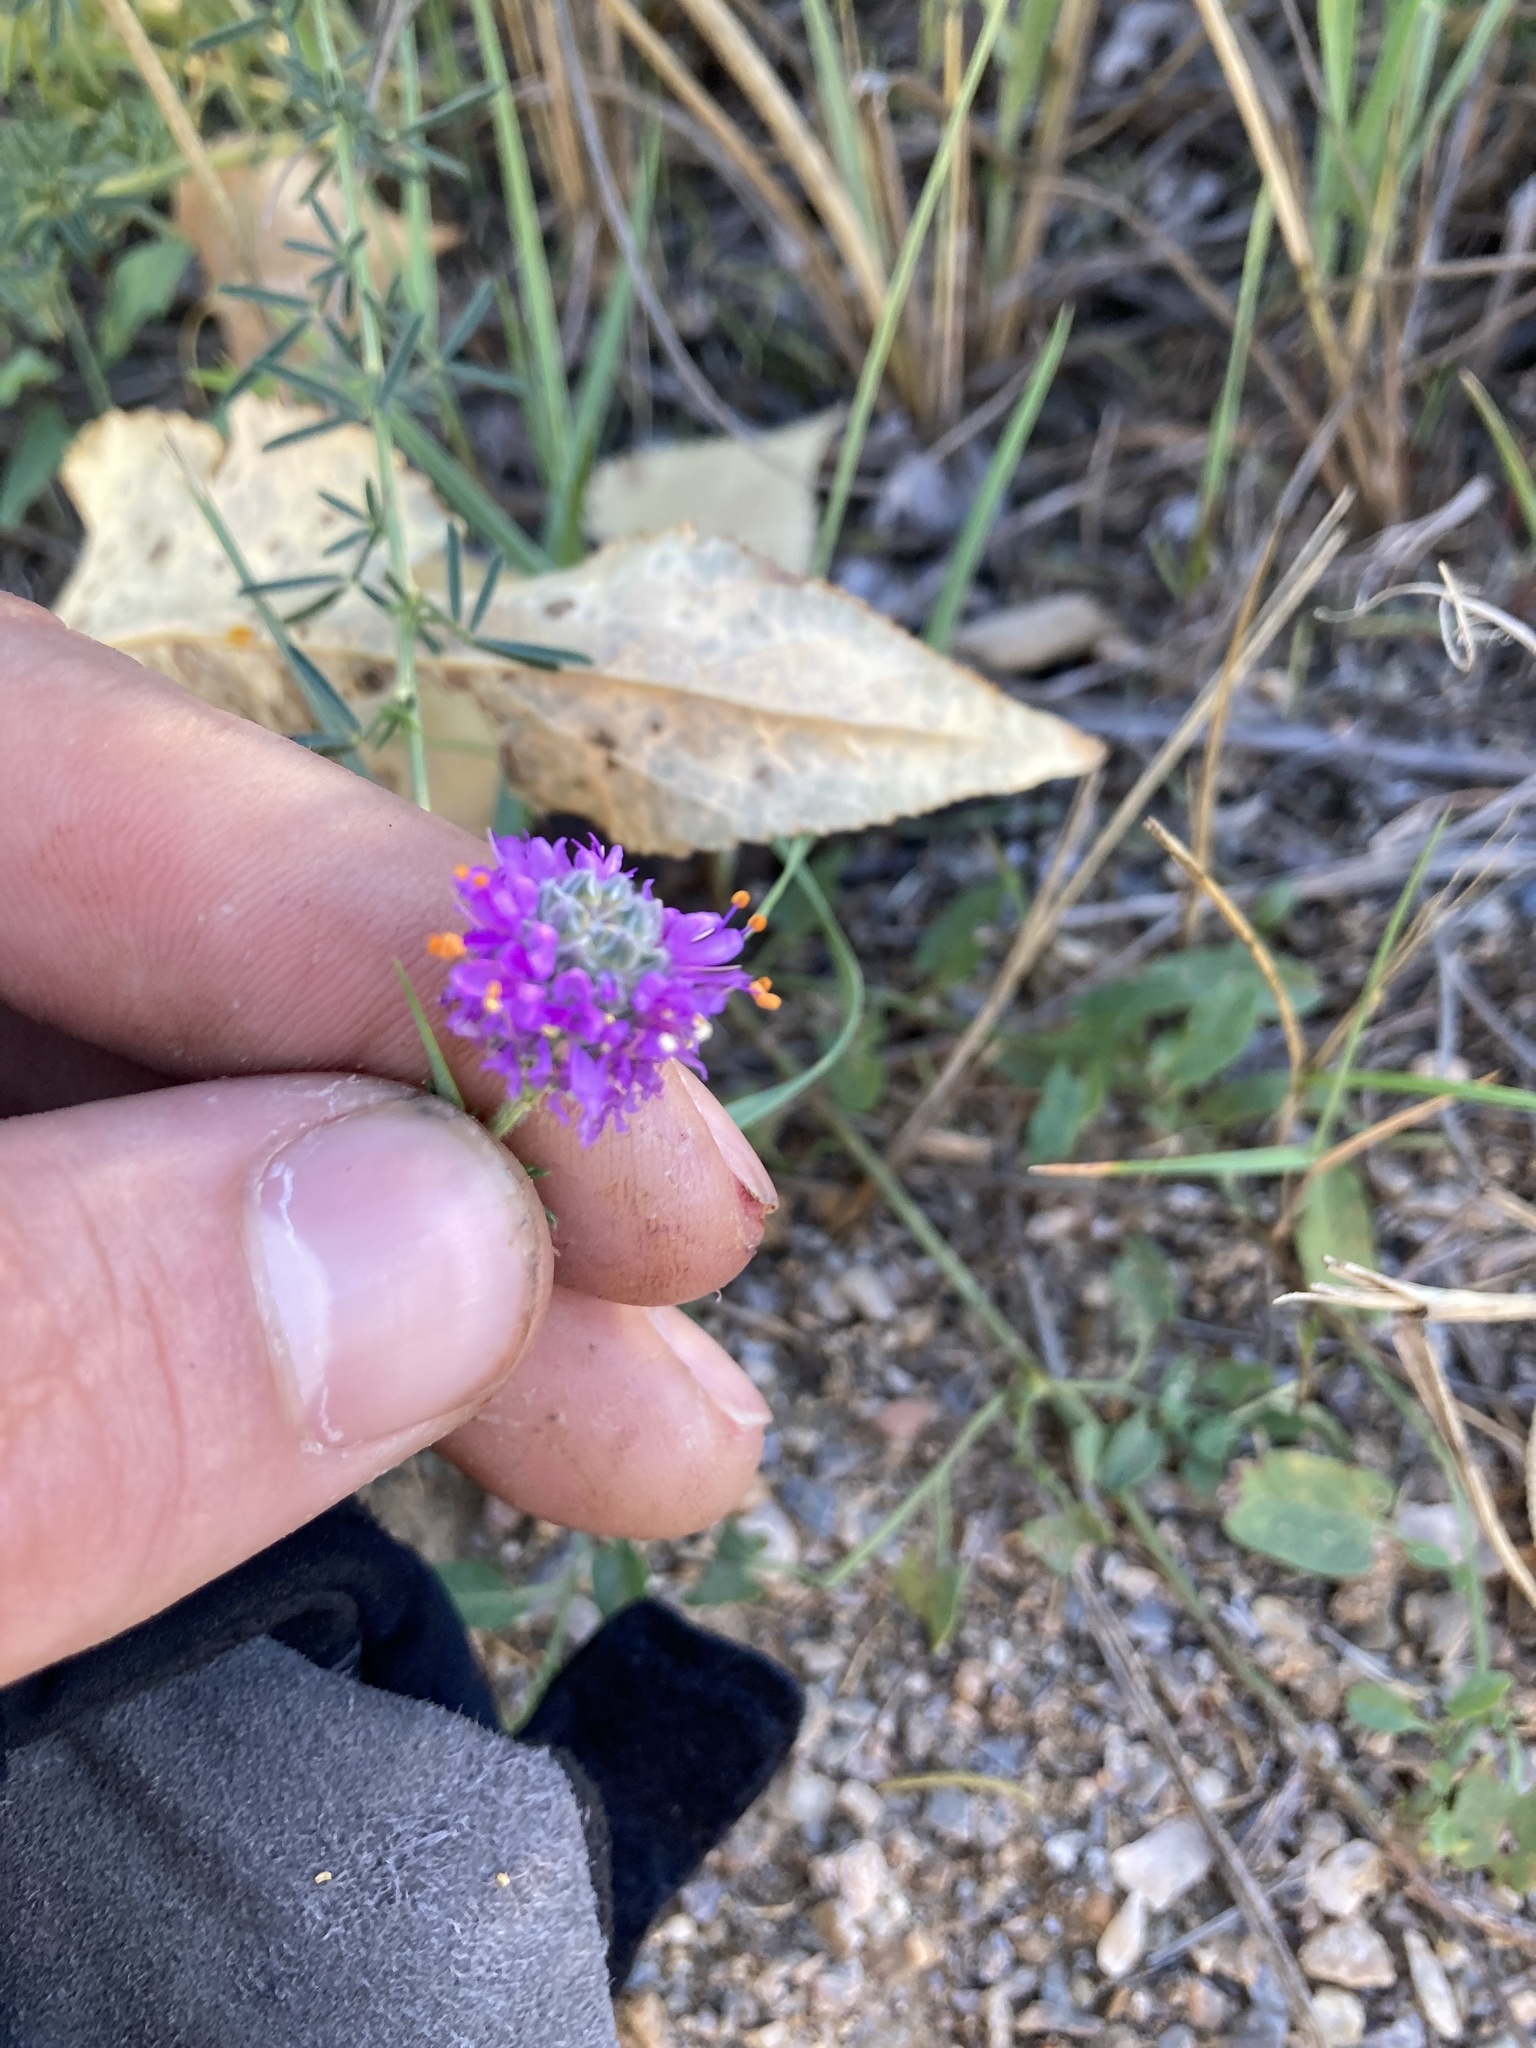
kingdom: Plantae
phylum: Tracheophyta
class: Magnoliopsida
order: Fabales
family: Fabaceae
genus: Dalea
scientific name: Dalea purpurea
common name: Purple prairie-clover
